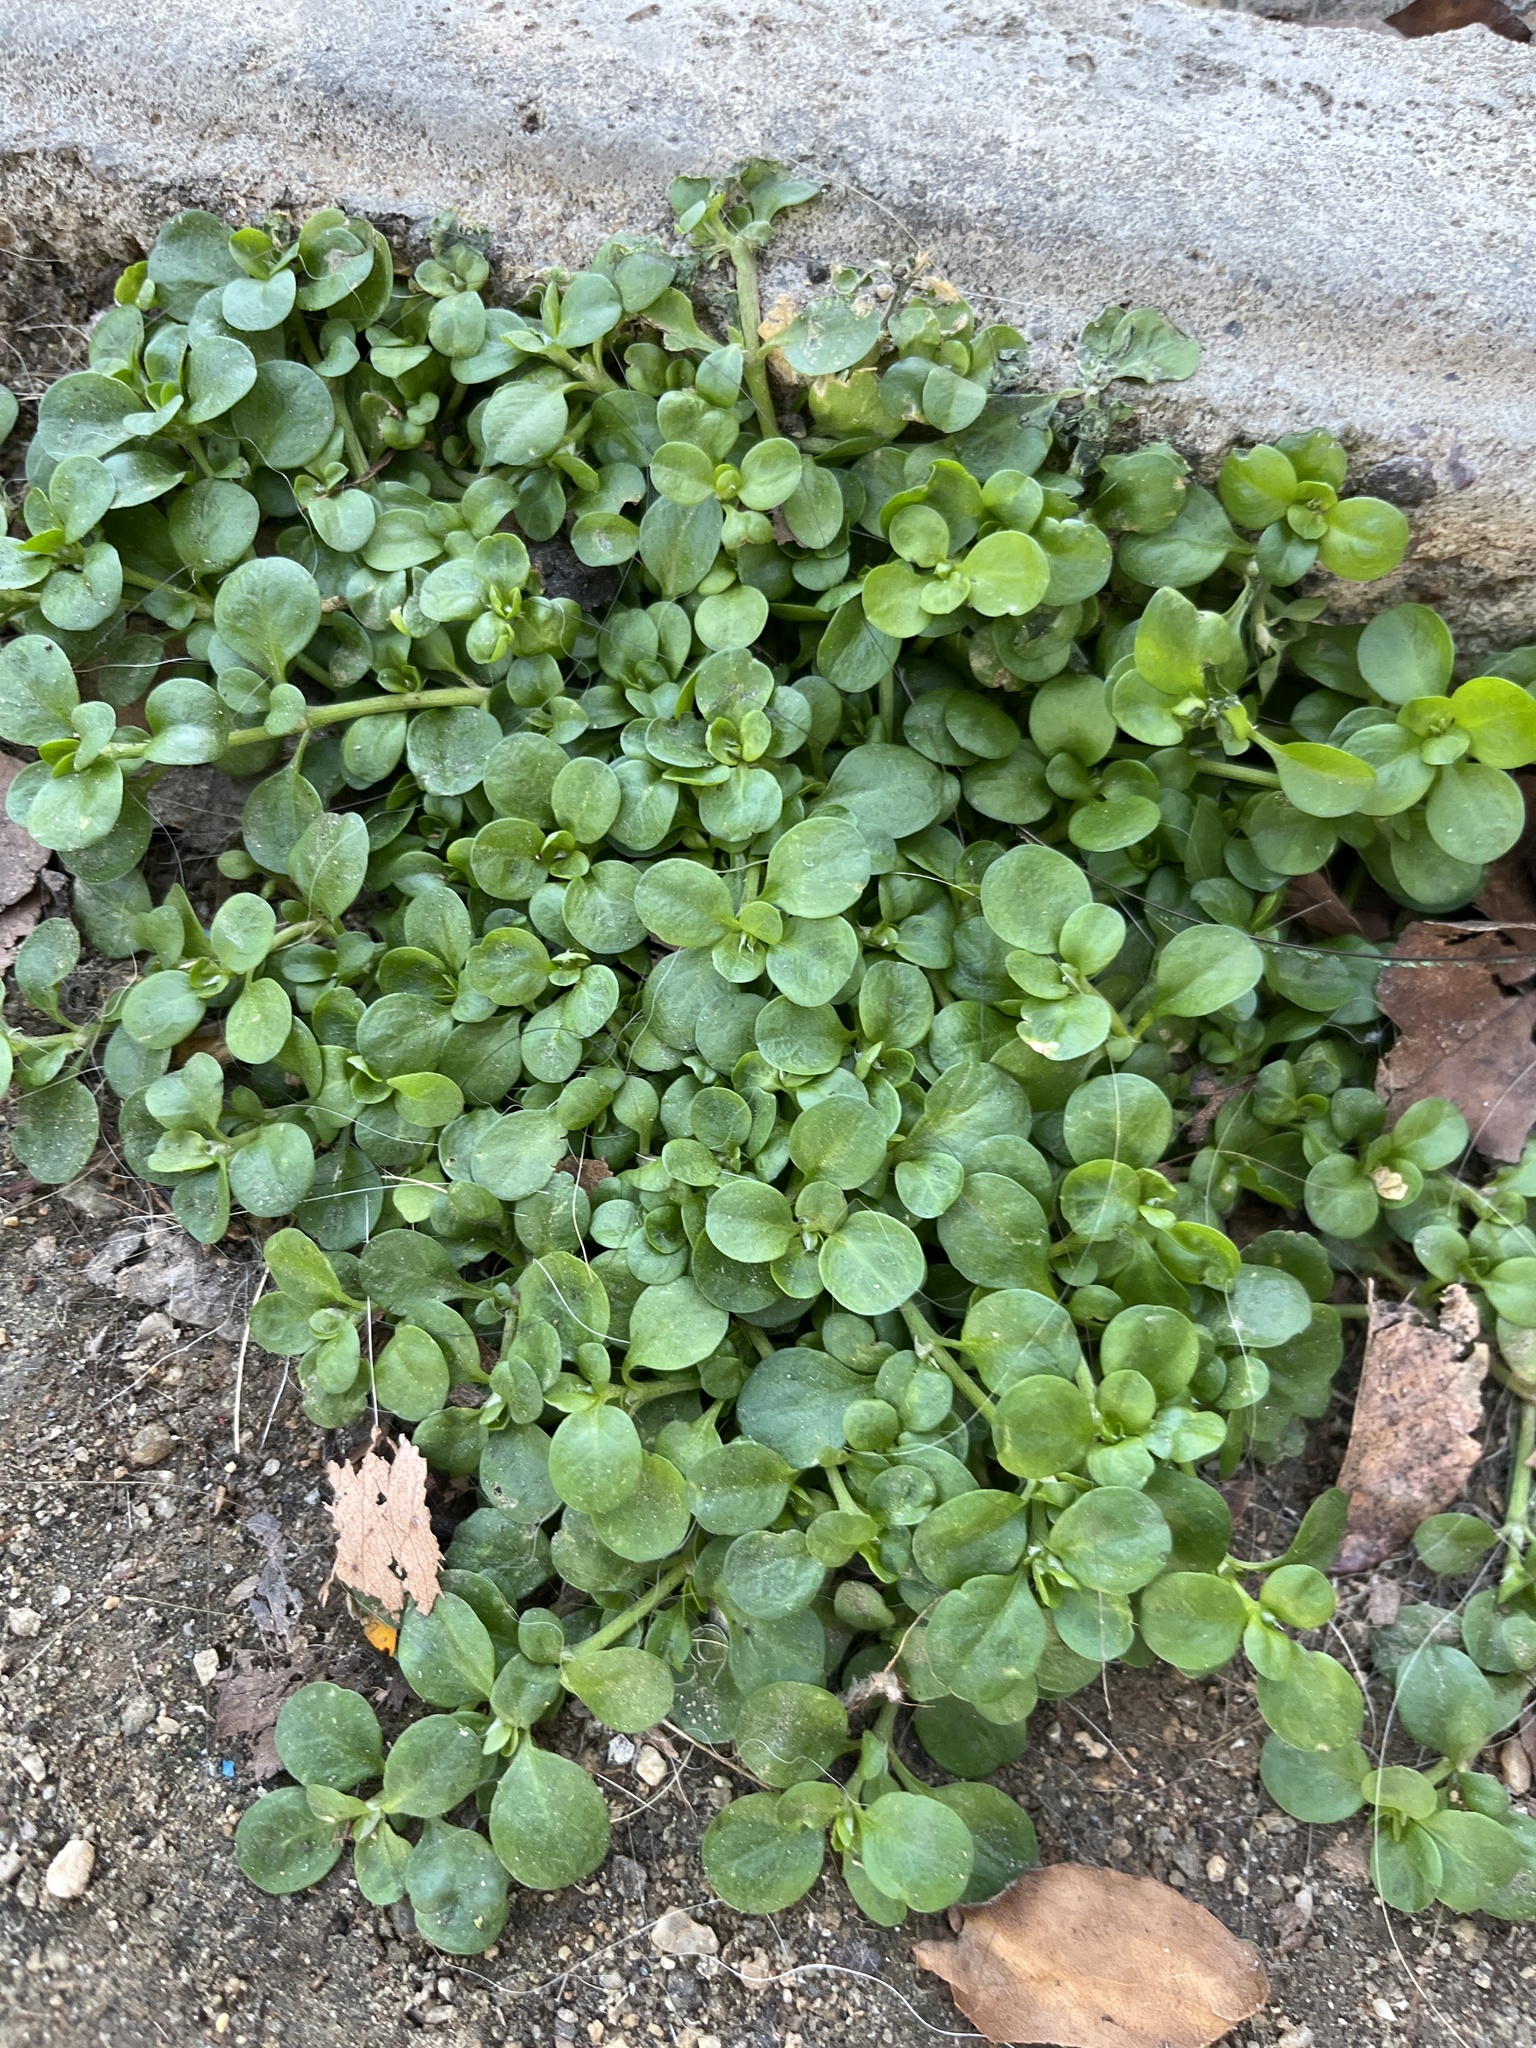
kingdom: Plantae
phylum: Tracheophyta
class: Magnoliopsida
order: Caryophyllales
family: Caryophyllaceae
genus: Polycarpon
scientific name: Polycarpon tetraphyllum
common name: Four-leaved all-seed
